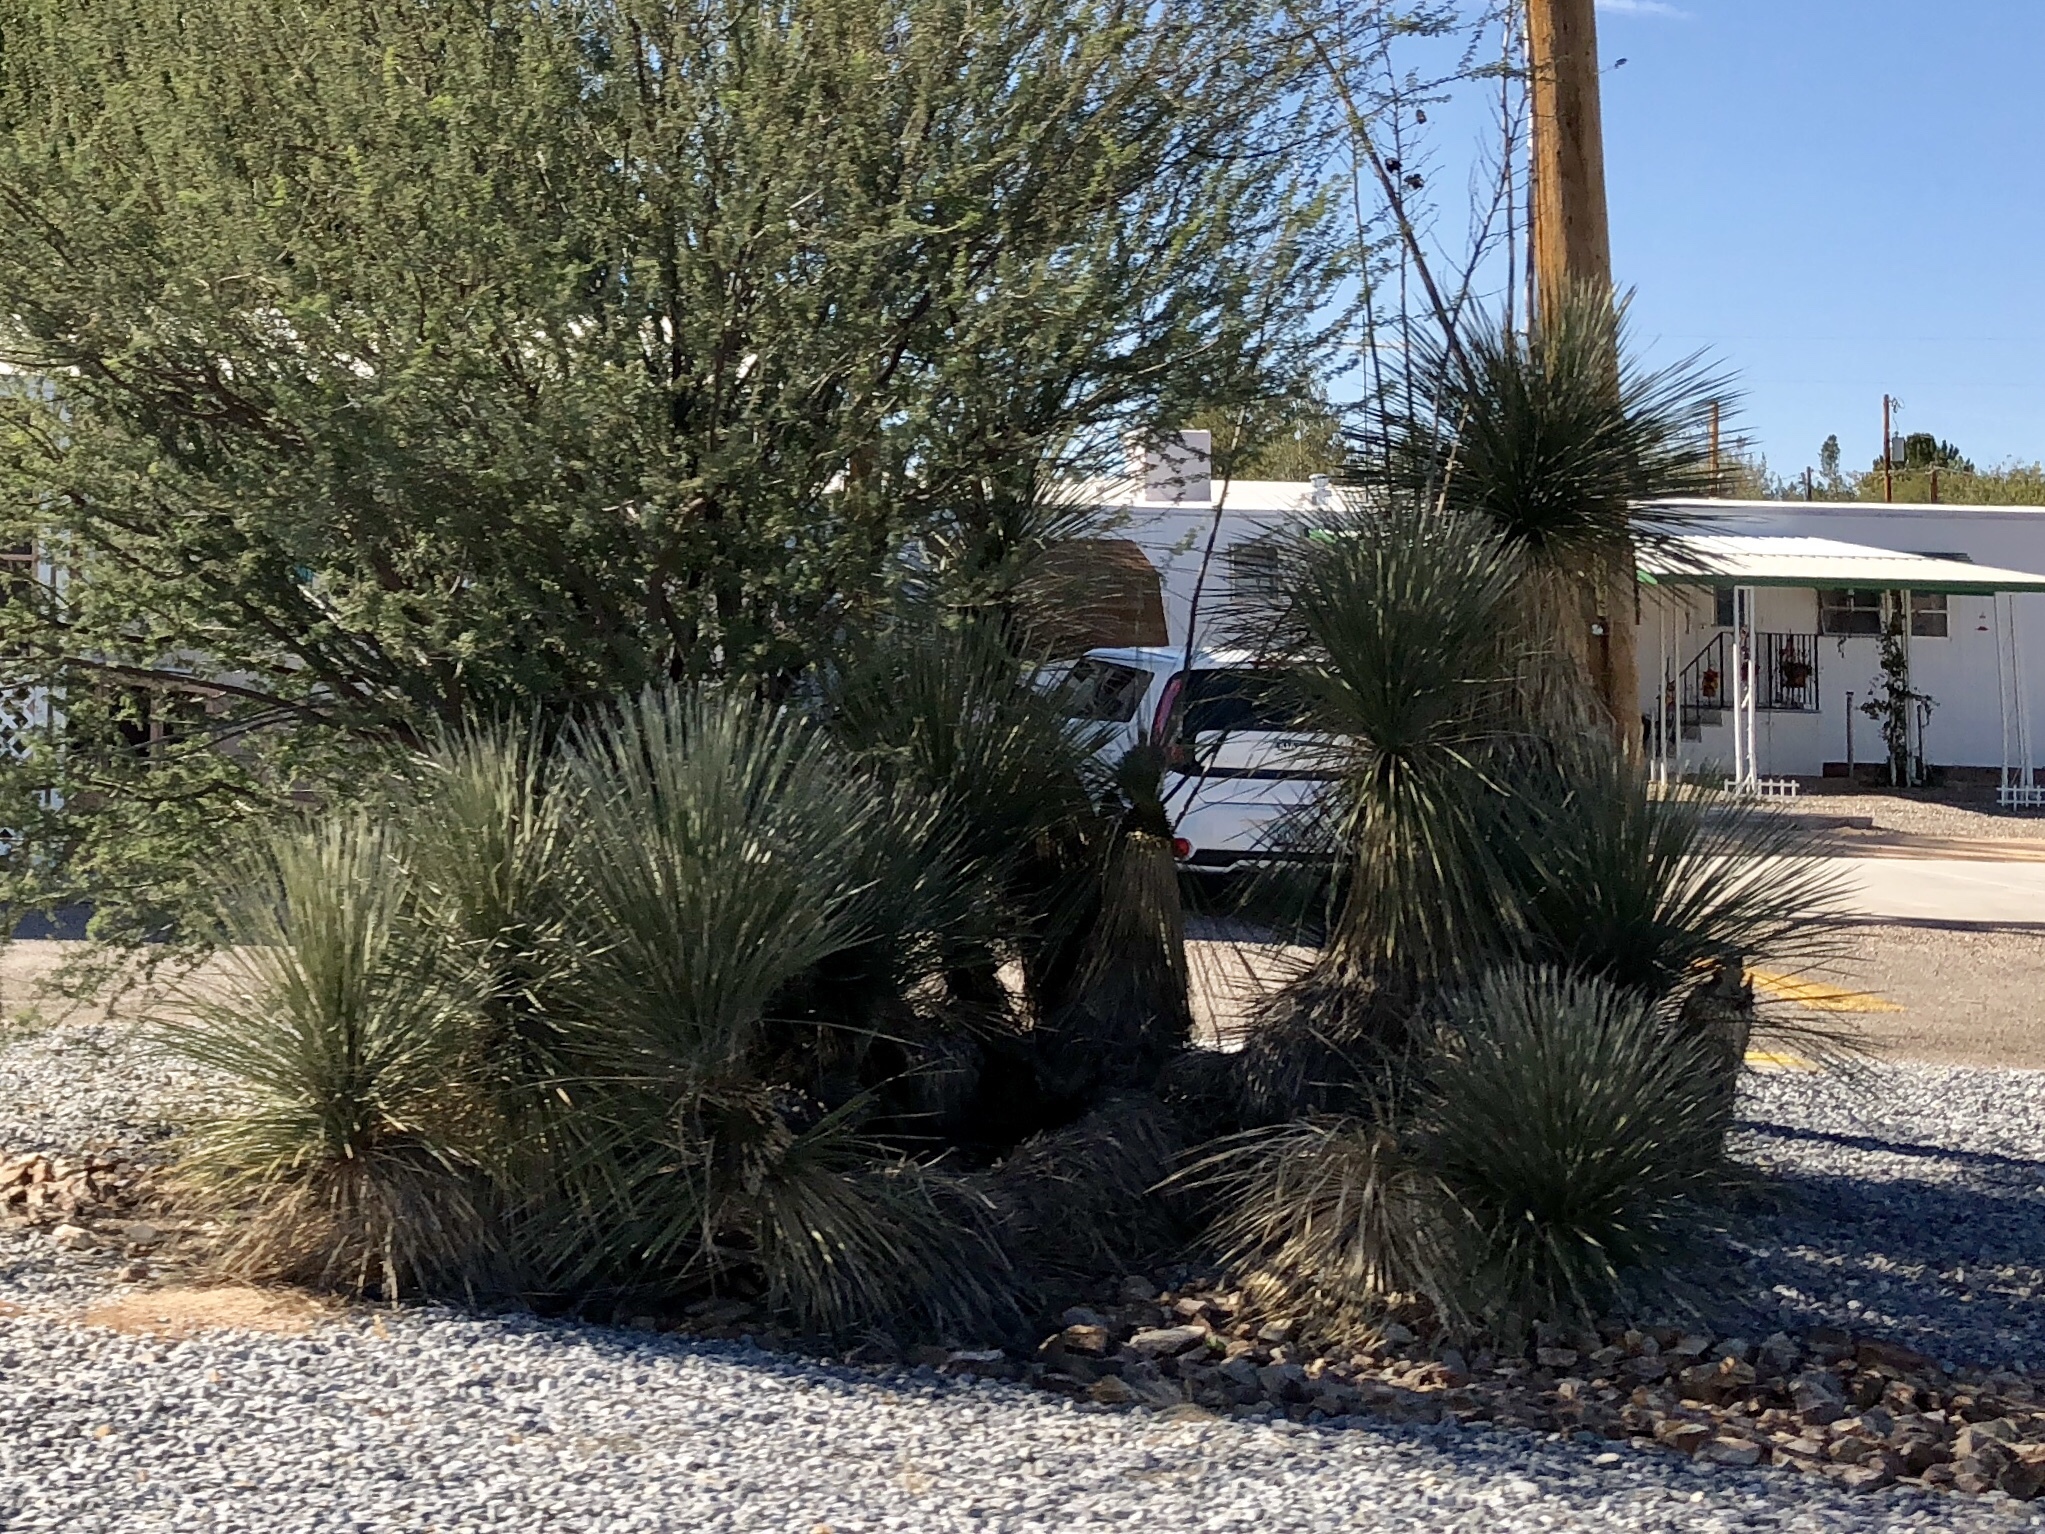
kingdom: Plantae
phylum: Tracheophyta
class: Liliopsida
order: Asparagales
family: Asparagaceae
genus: Yucca
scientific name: Yucca elata
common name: Palmella
